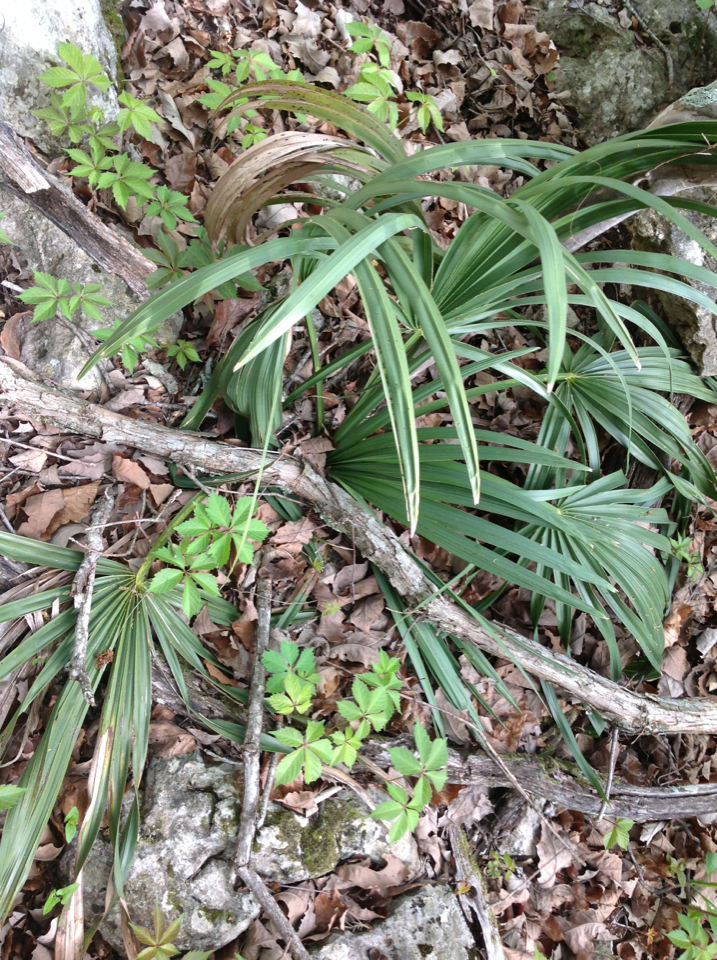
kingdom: Plantae
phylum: Tracheophyta
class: Liliopsida
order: Arecales
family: Arecaceae
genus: Sabal
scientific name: Sabal minor
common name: Dwarf palmetto
